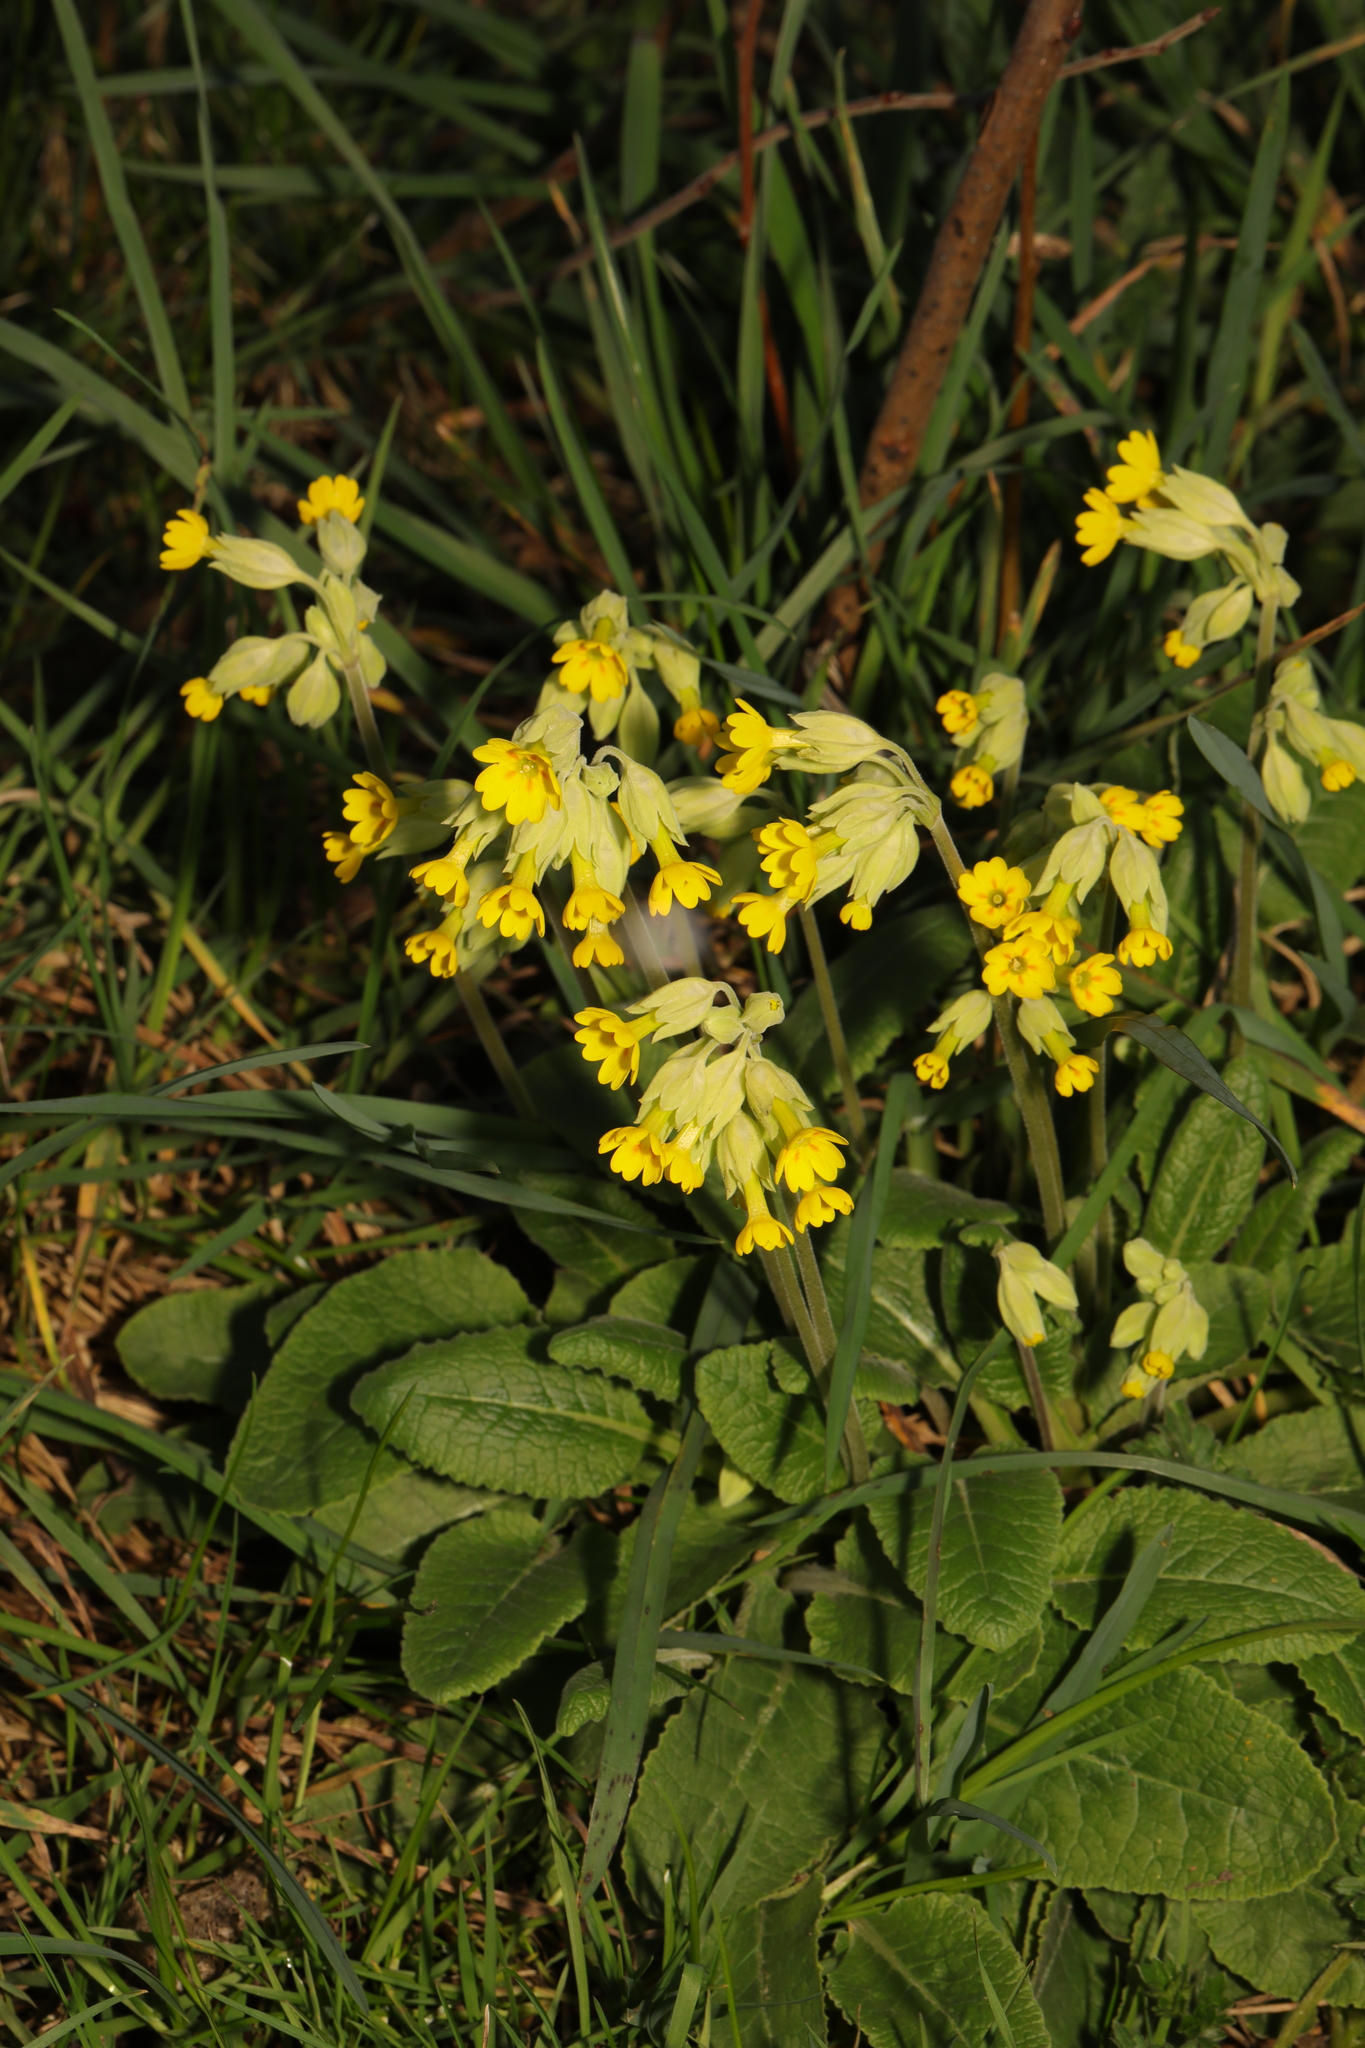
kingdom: Plantae
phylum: Tracheophyta
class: Magnoliopsida
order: Ericales
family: Primulaceae
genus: Primula
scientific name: Primula veris
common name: Cowslip
